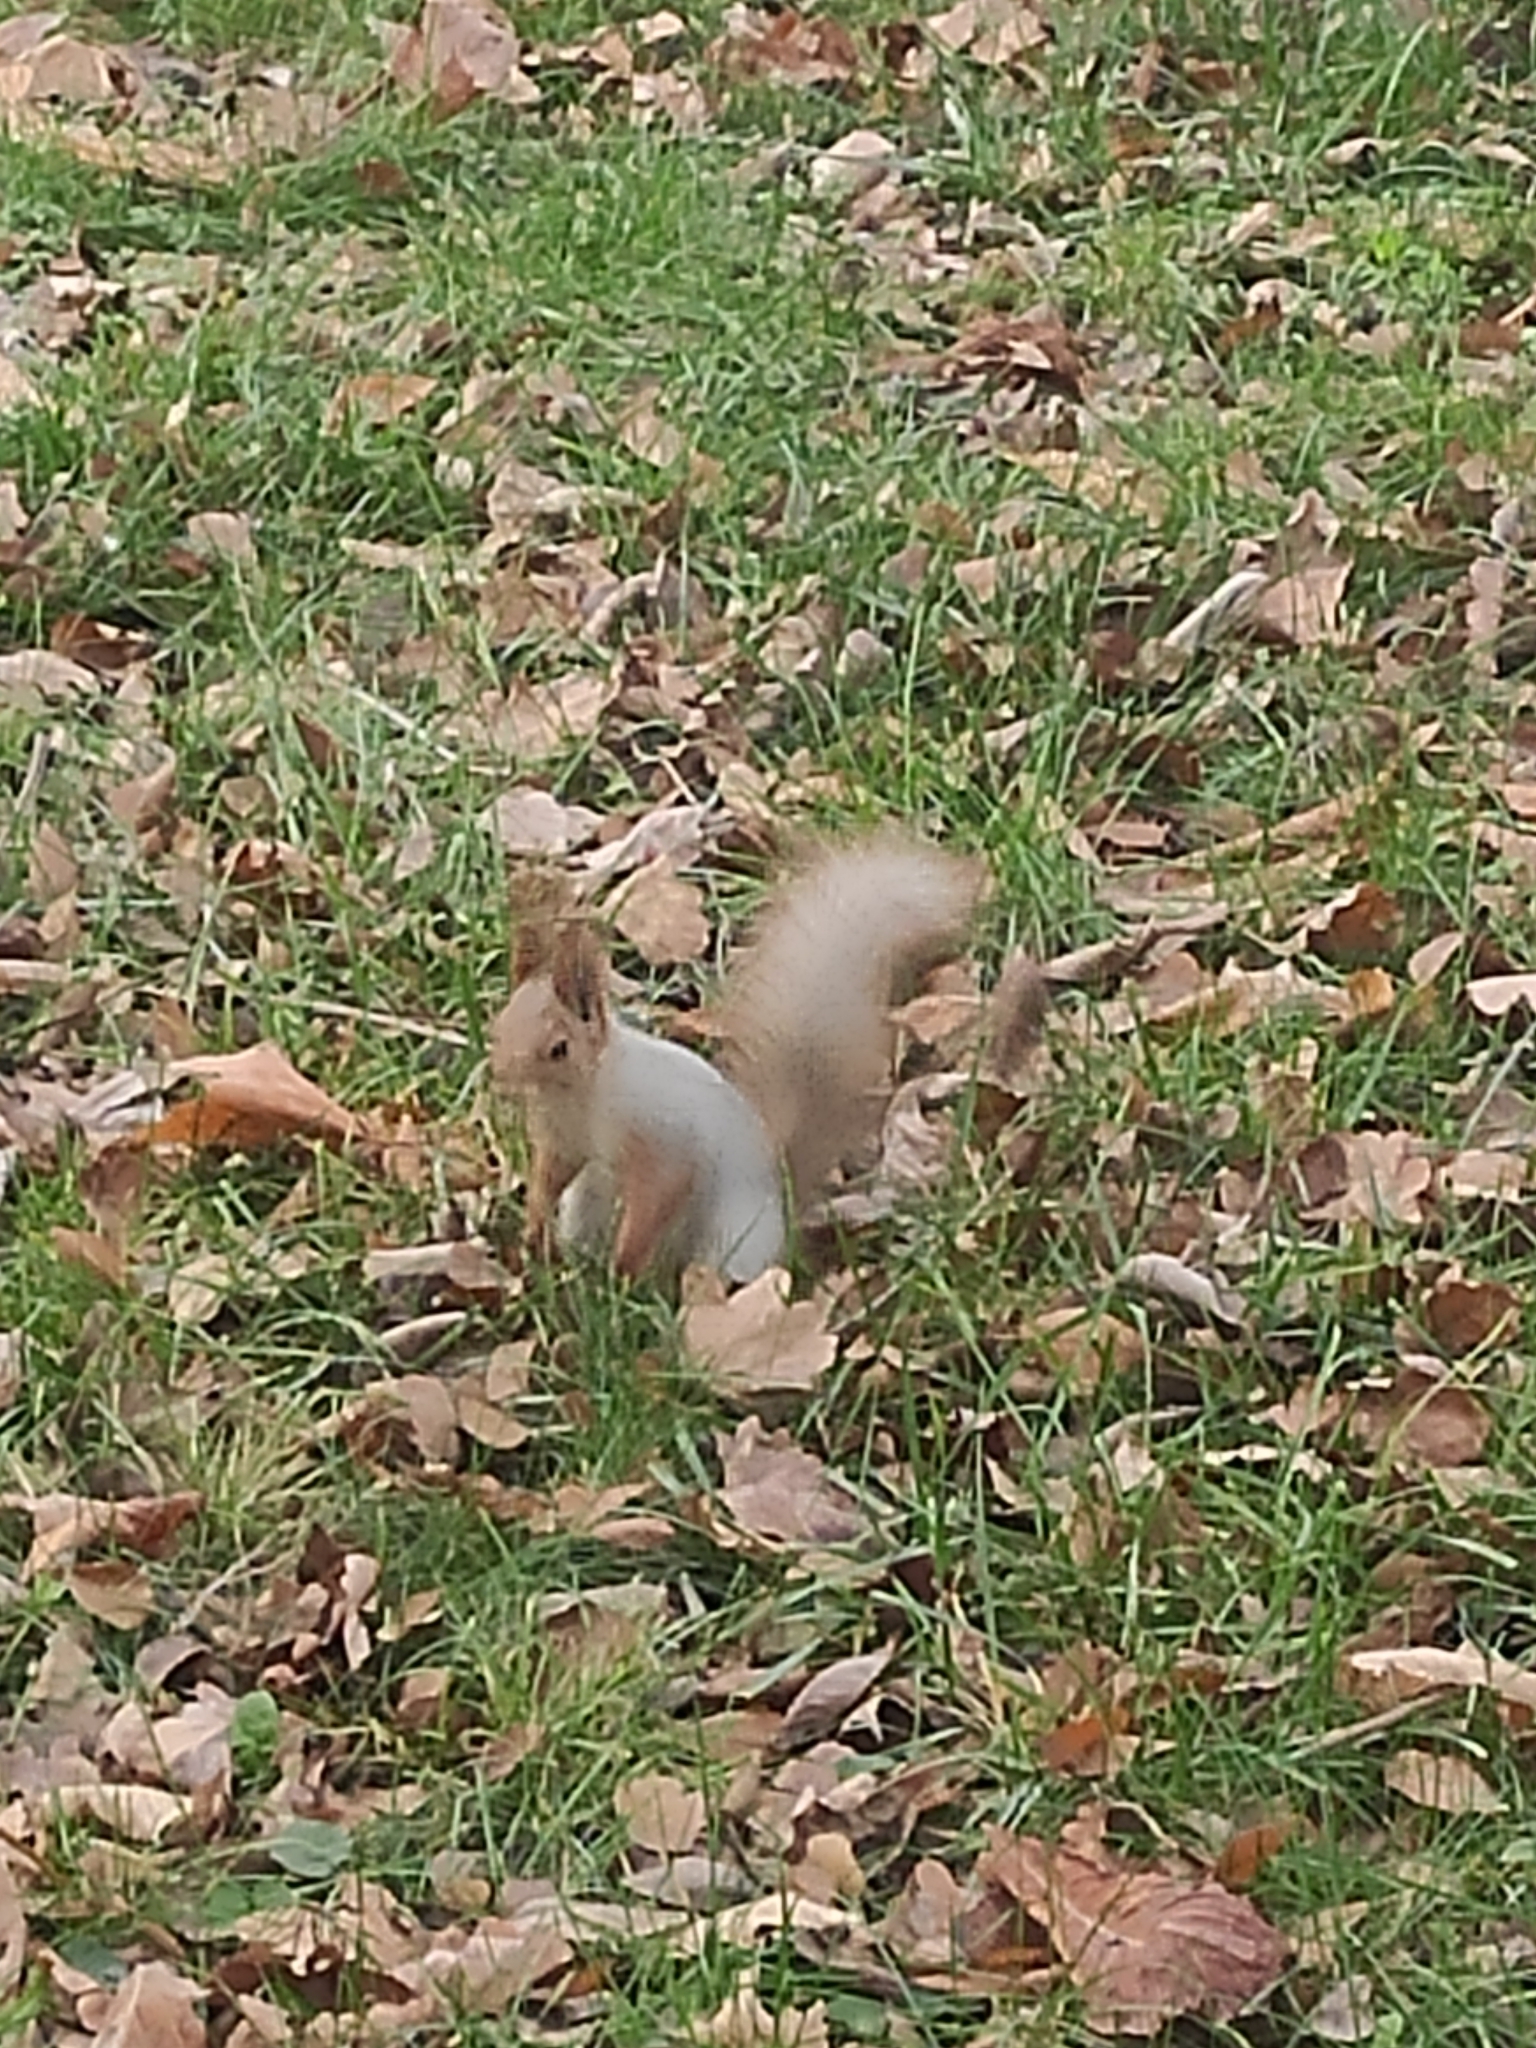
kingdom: Animalia
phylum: Chordata
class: Mammalia
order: Rodentia
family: Sciuridae
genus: Sciurus
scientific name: Sciurus vulgaris
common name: Eurasian red squirrel
